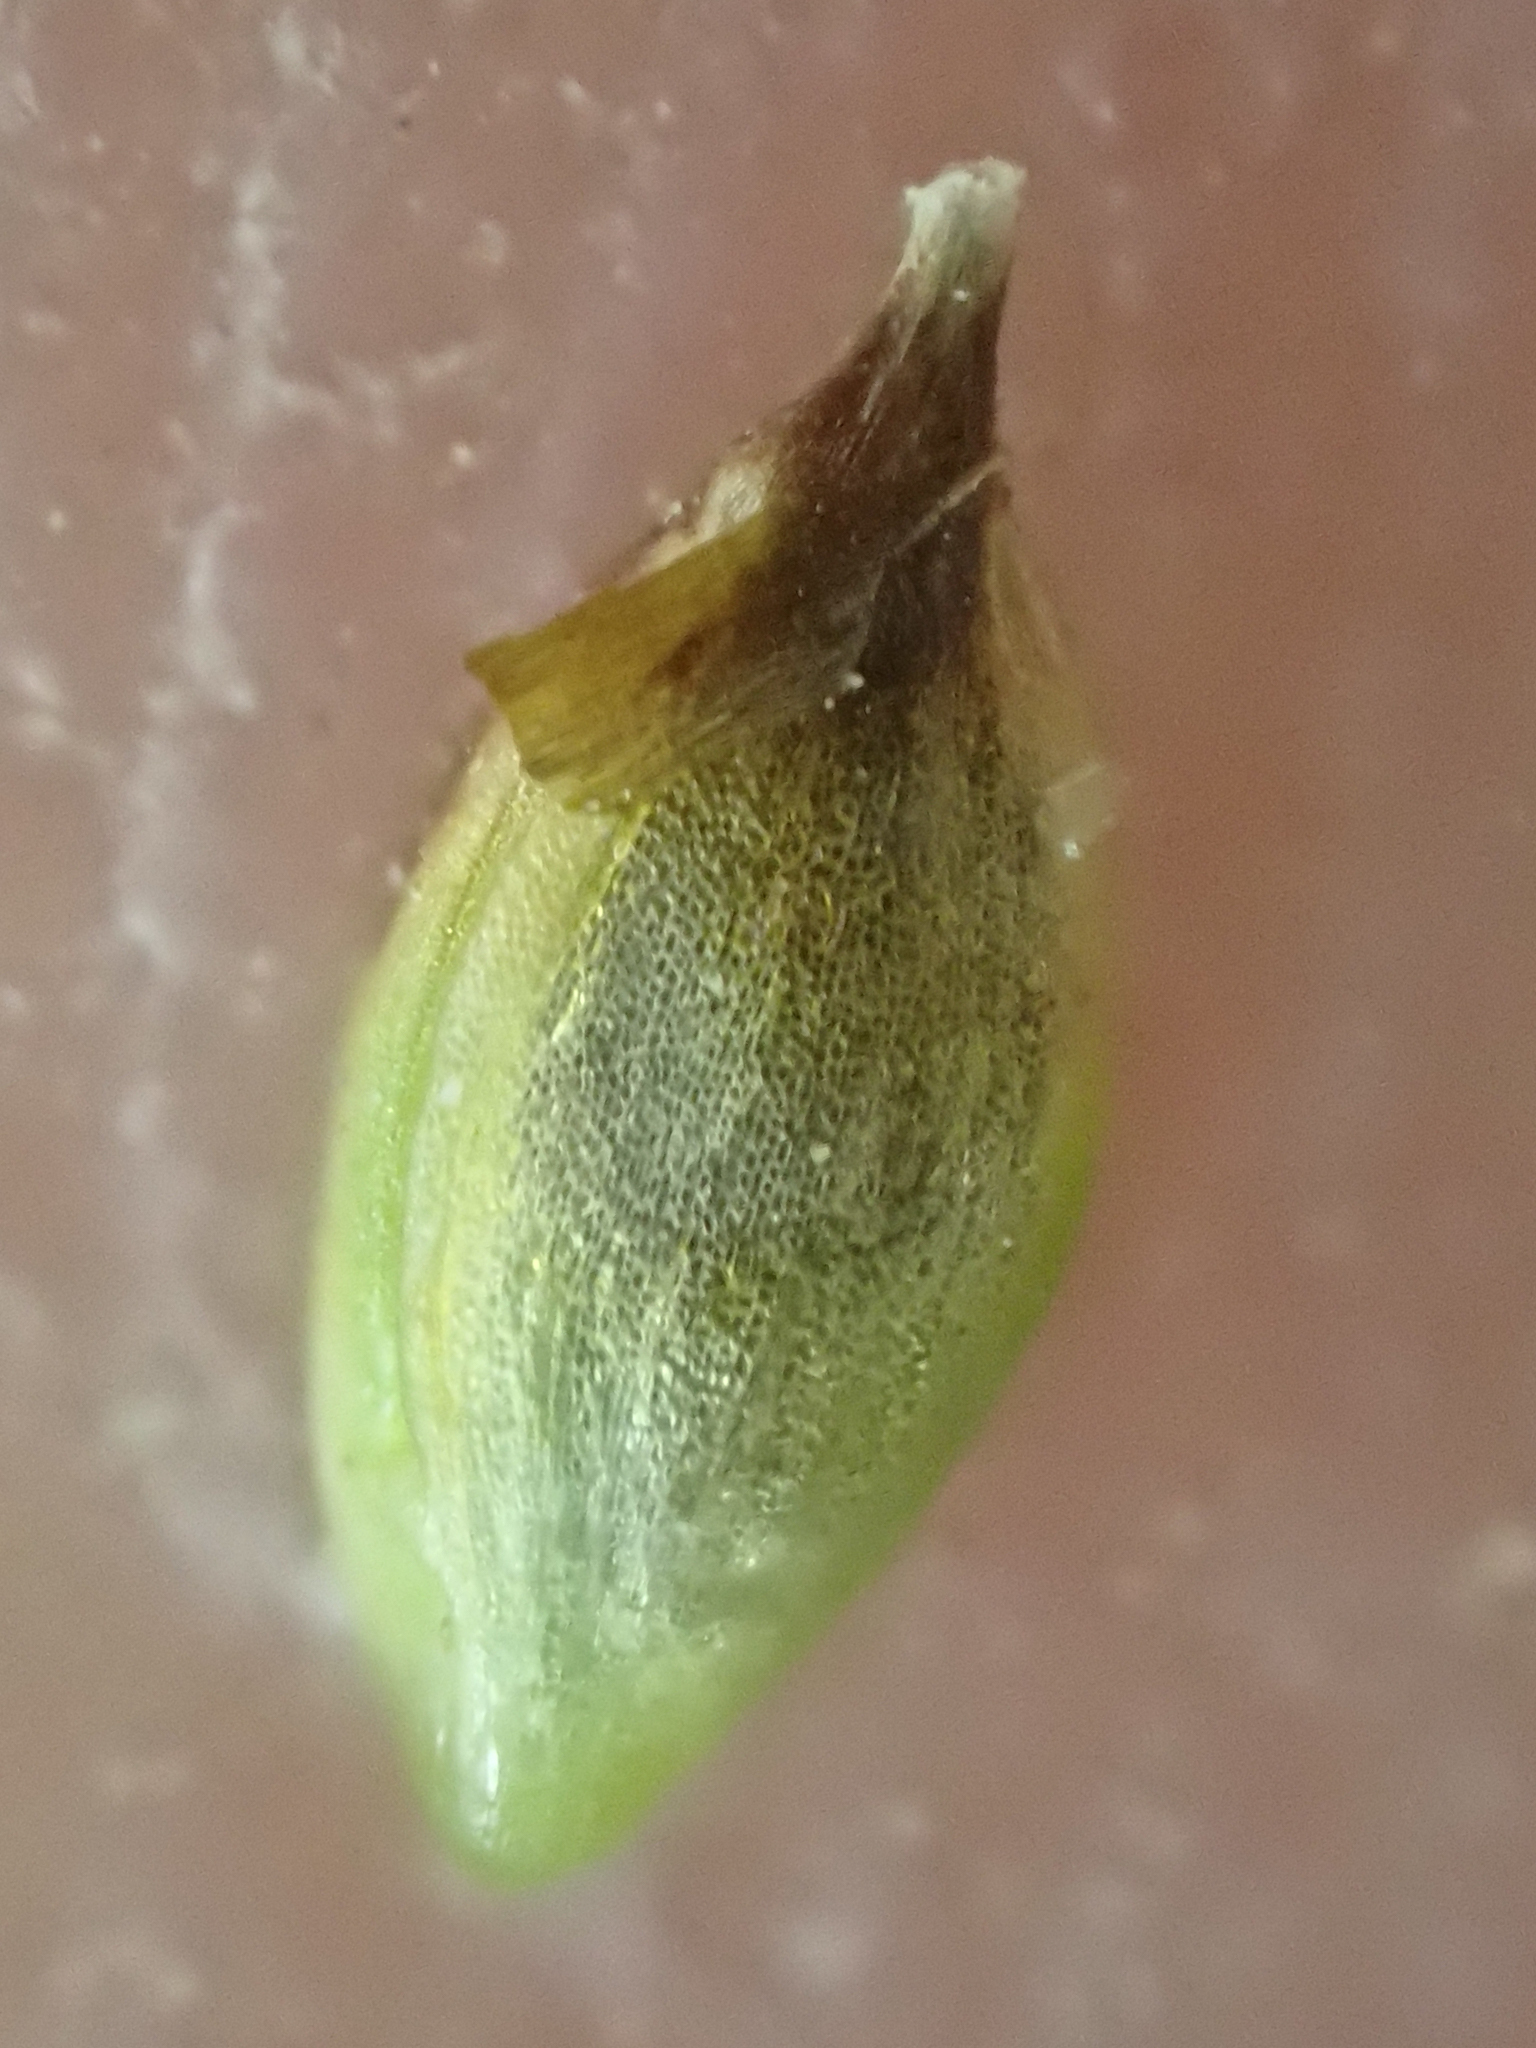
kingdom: Plantae
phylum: Tracheophyta
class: Liliopsida
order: Poales
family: Cyperaceae
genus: Carex
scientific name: Carex nardina
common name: Nard sedge
